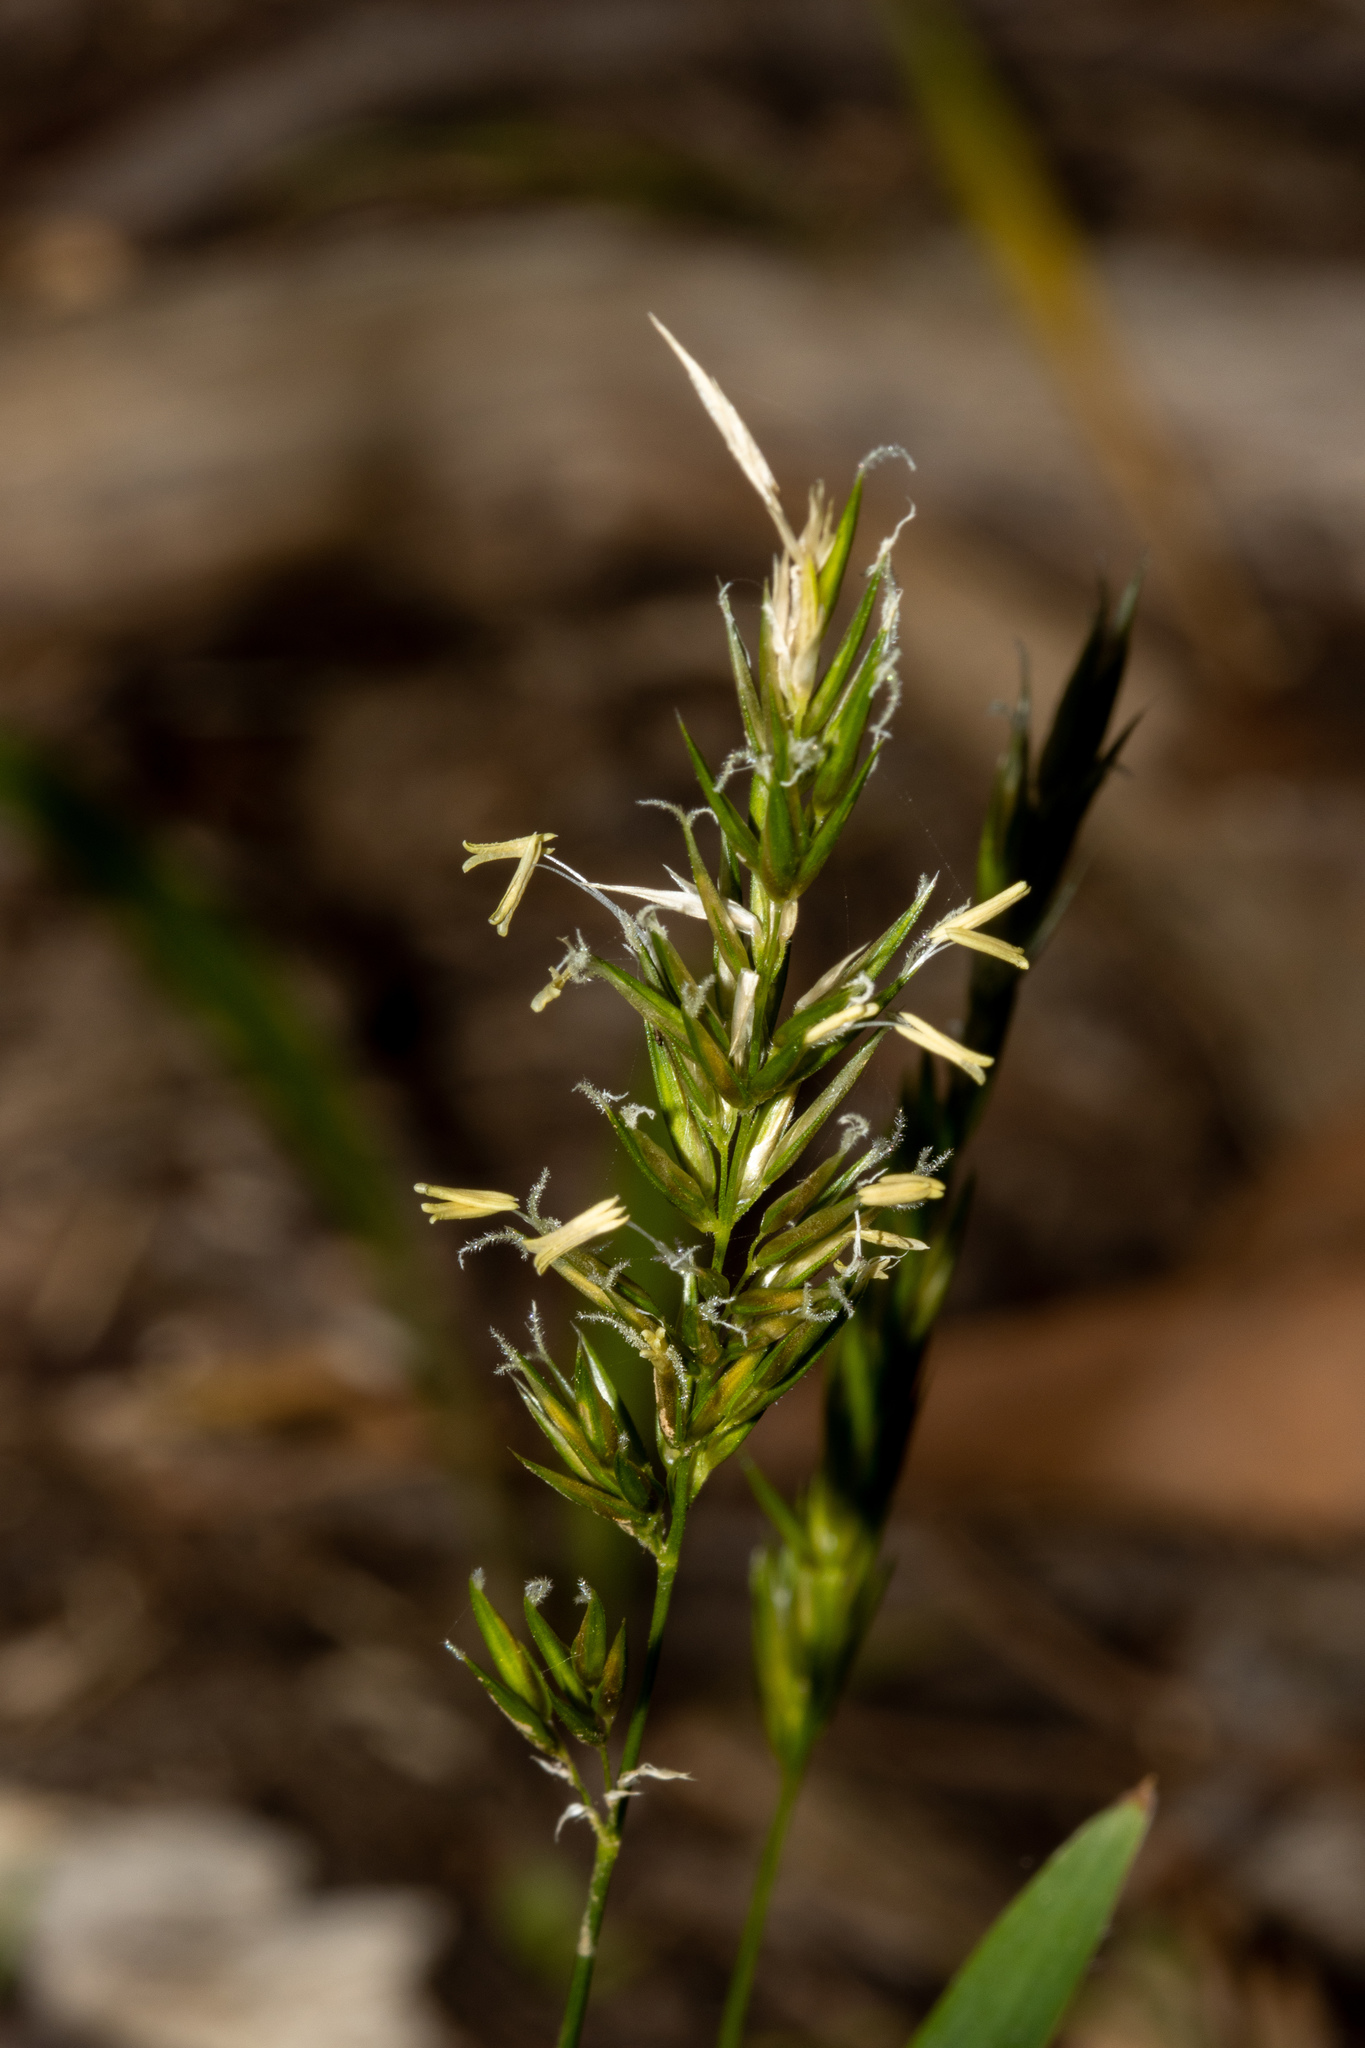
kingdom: Plantae
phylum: Tracheophyta
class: Liliopsida
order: Poales
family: Poaceae
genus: Anthoxanthum
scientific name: Anthoxanthum odoratum
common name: Sweet vernalgrass
